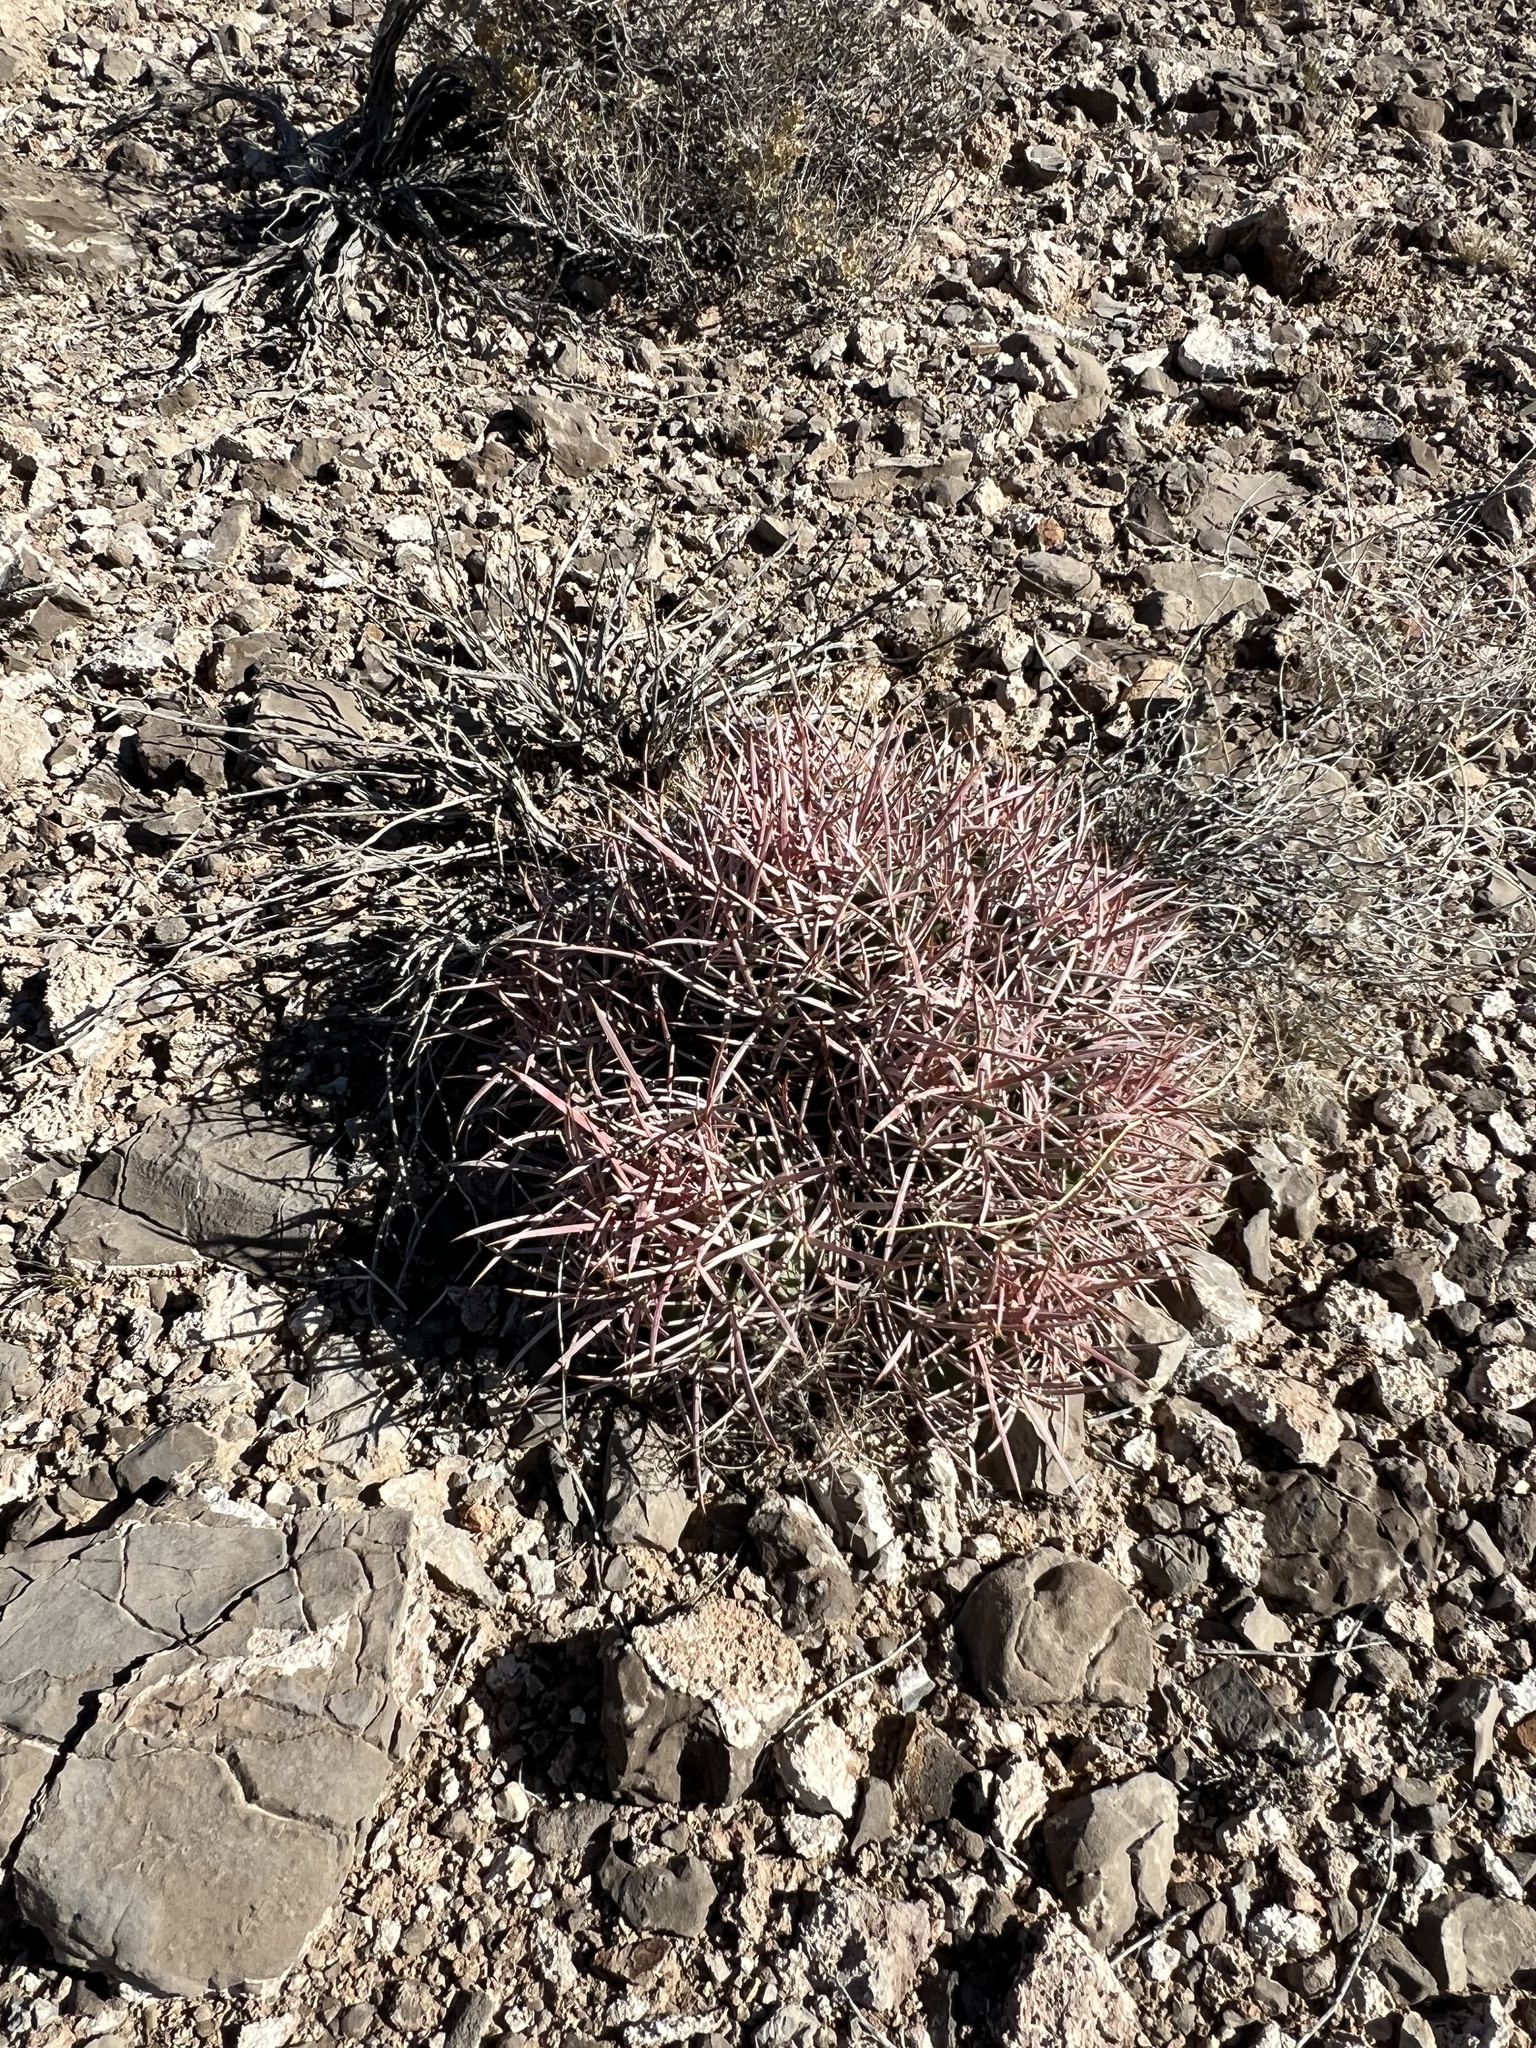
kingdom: Plantae
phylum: Tracheophyta
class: Magnoliopsida
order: Caryophyllales
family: Cactaceae
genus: Echinocactus
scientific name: Echinocactus polycephalus
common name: Cottontop cactus
